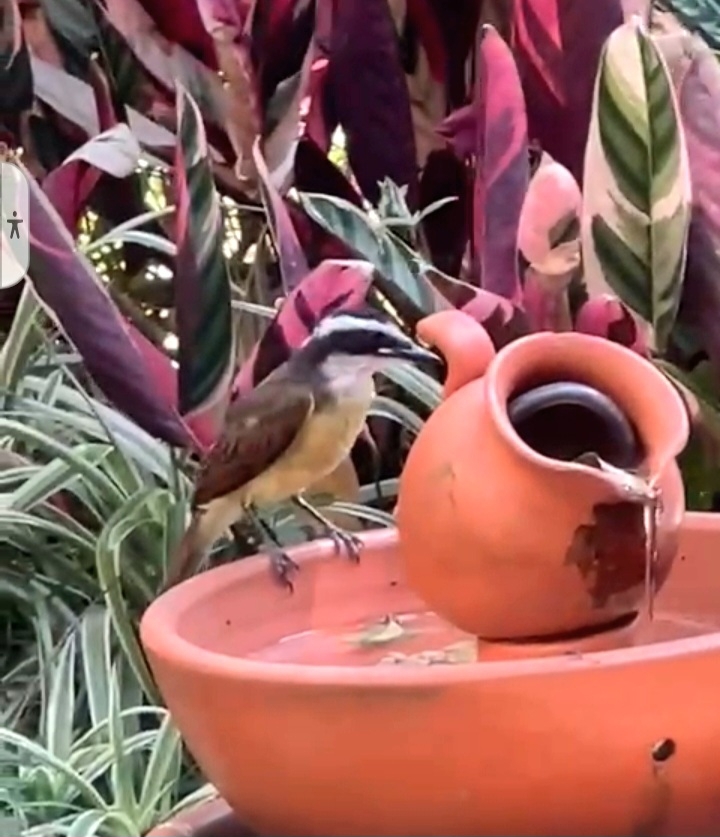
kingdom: Animalia
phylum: Chordata
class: Aves
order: Passeriformes
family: Tyrannidae
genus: Pitangus
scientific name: Pitangus sulphuratus
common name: Great kiskadee
